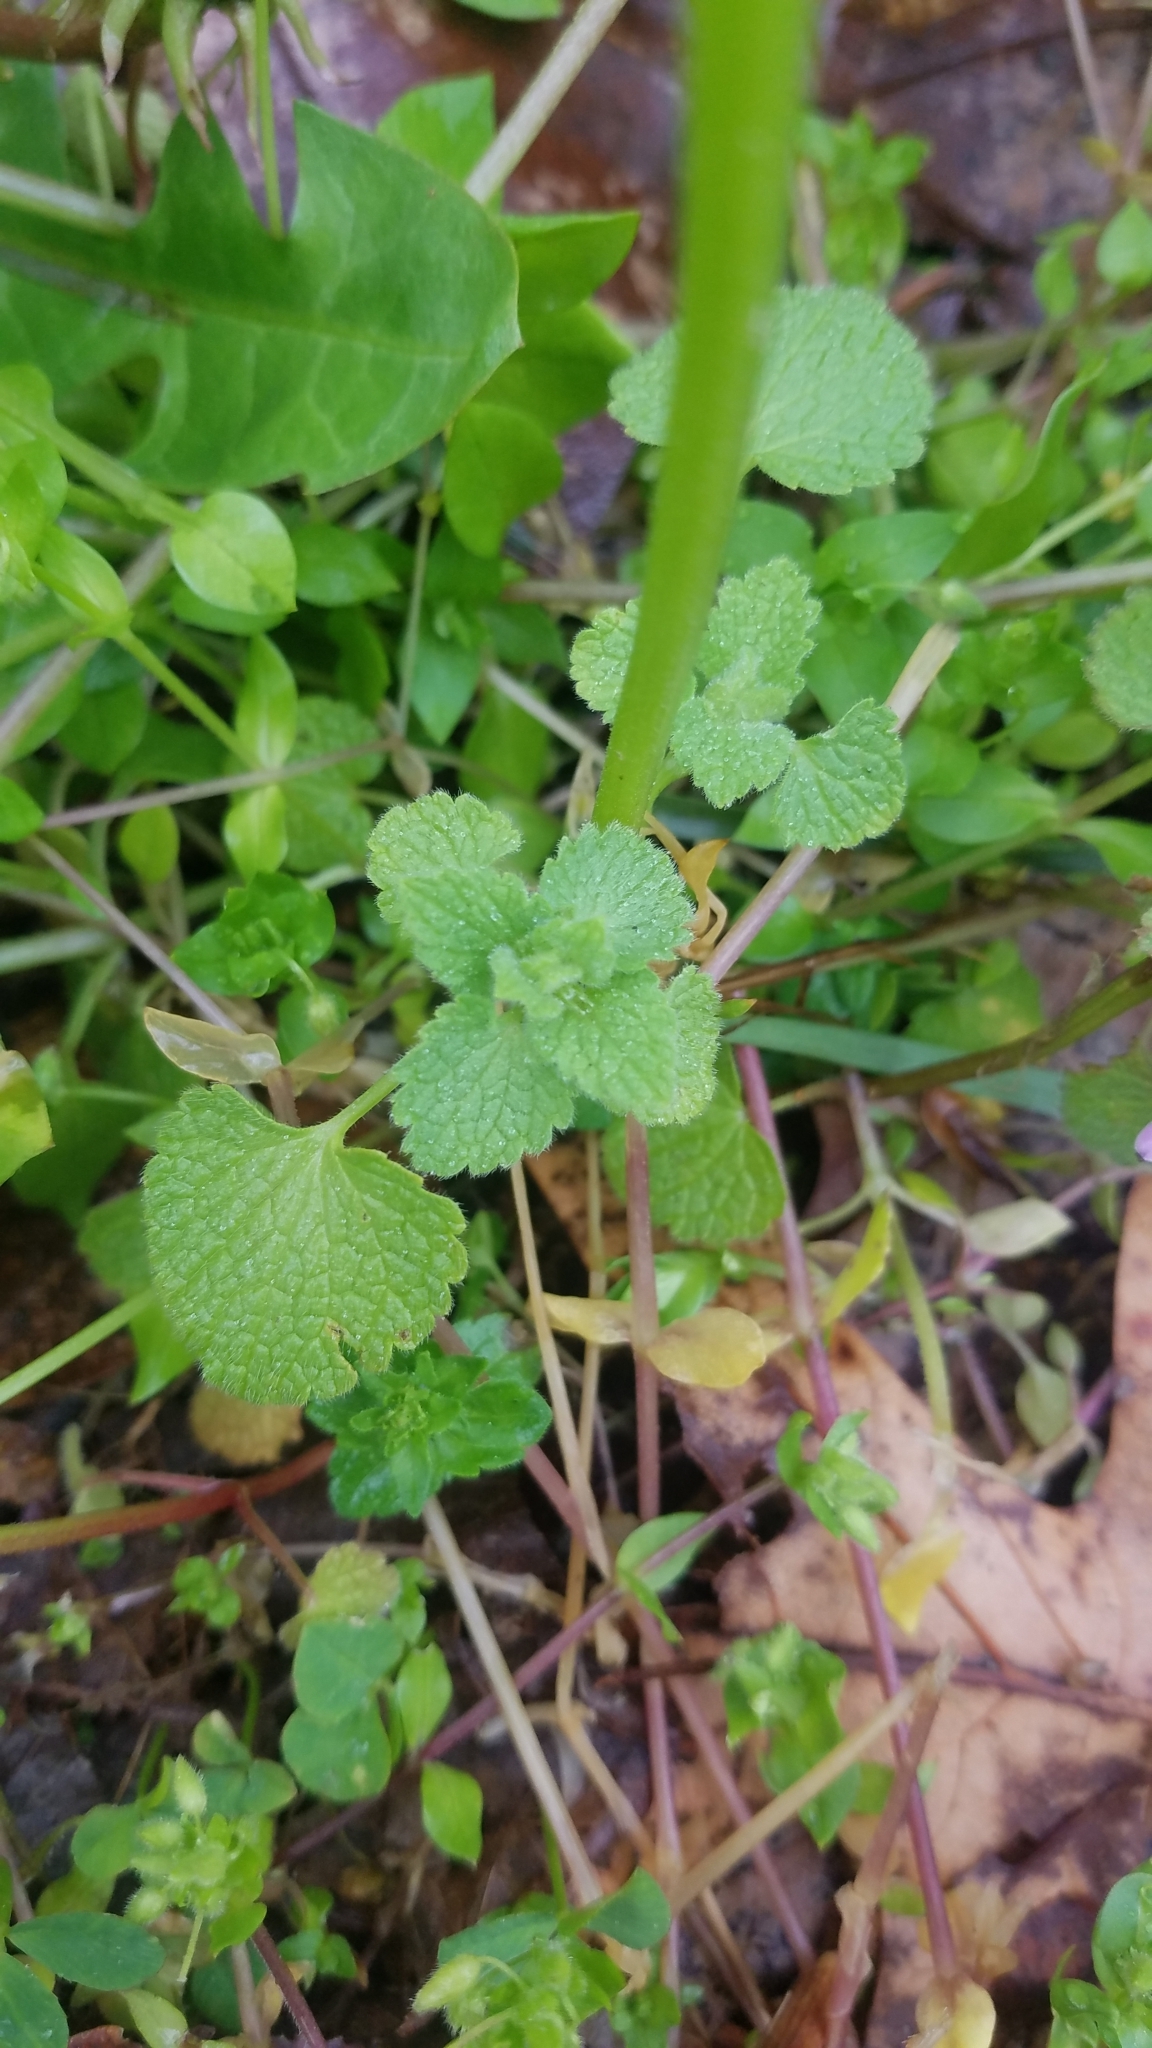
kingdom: Plantae
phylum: Tracheophyta
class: Magnoliopsida
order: Lamiales
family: Lamiaceae
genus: Lamium
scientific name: Lamium purpureum
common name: Red dead-nettle
